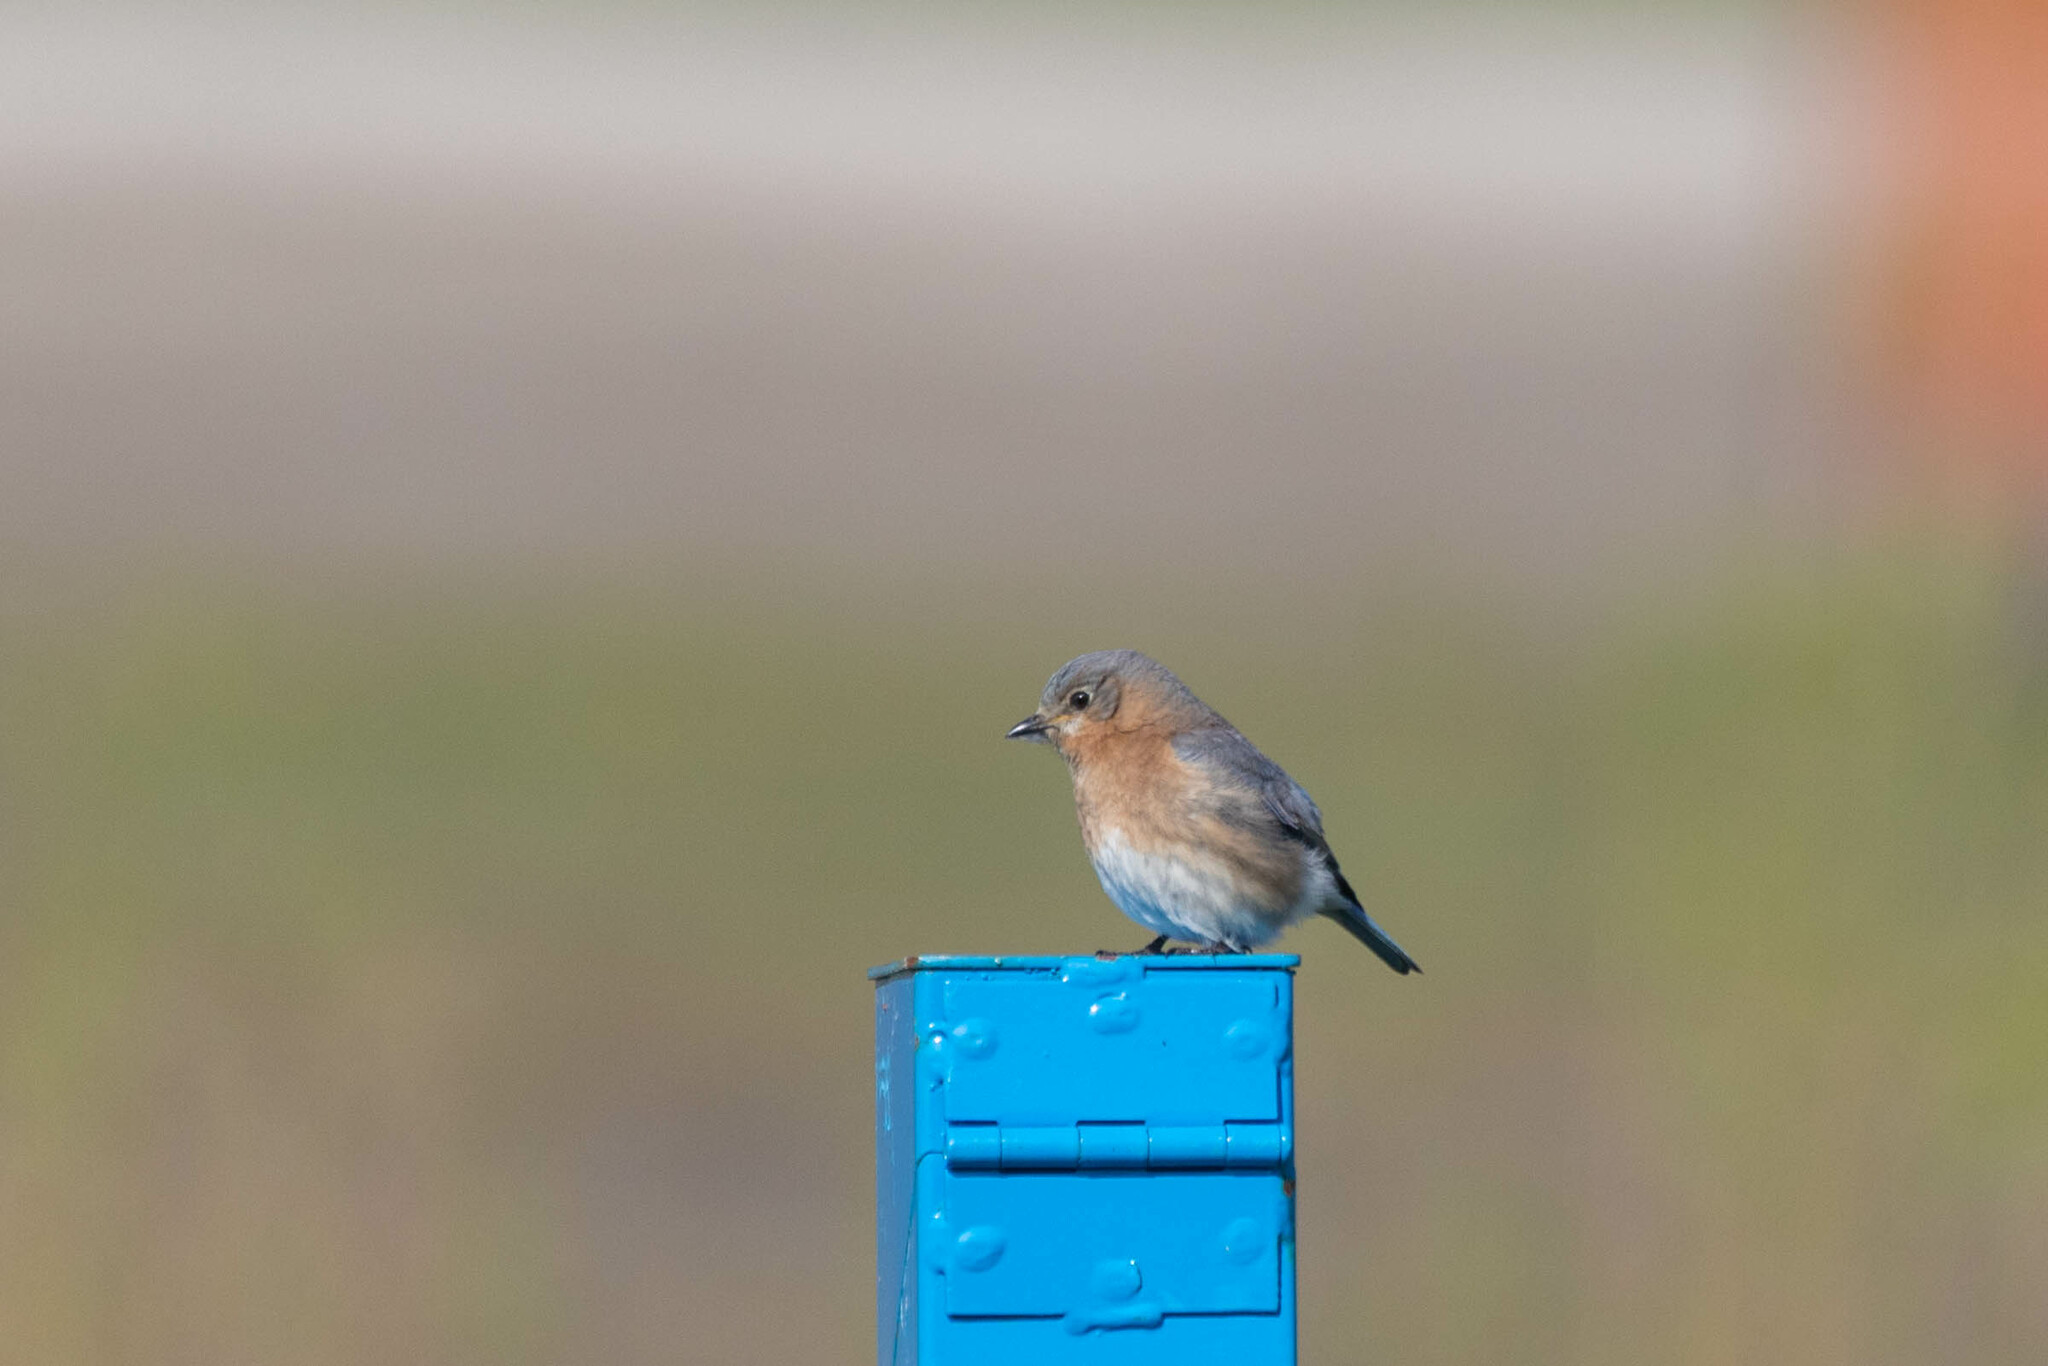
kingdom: Animalia
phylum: Chordata
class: Aves
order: Passeriformes
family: Turdidae
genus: Sialia
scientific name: Sialia sialis
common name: Eastern bluebird
